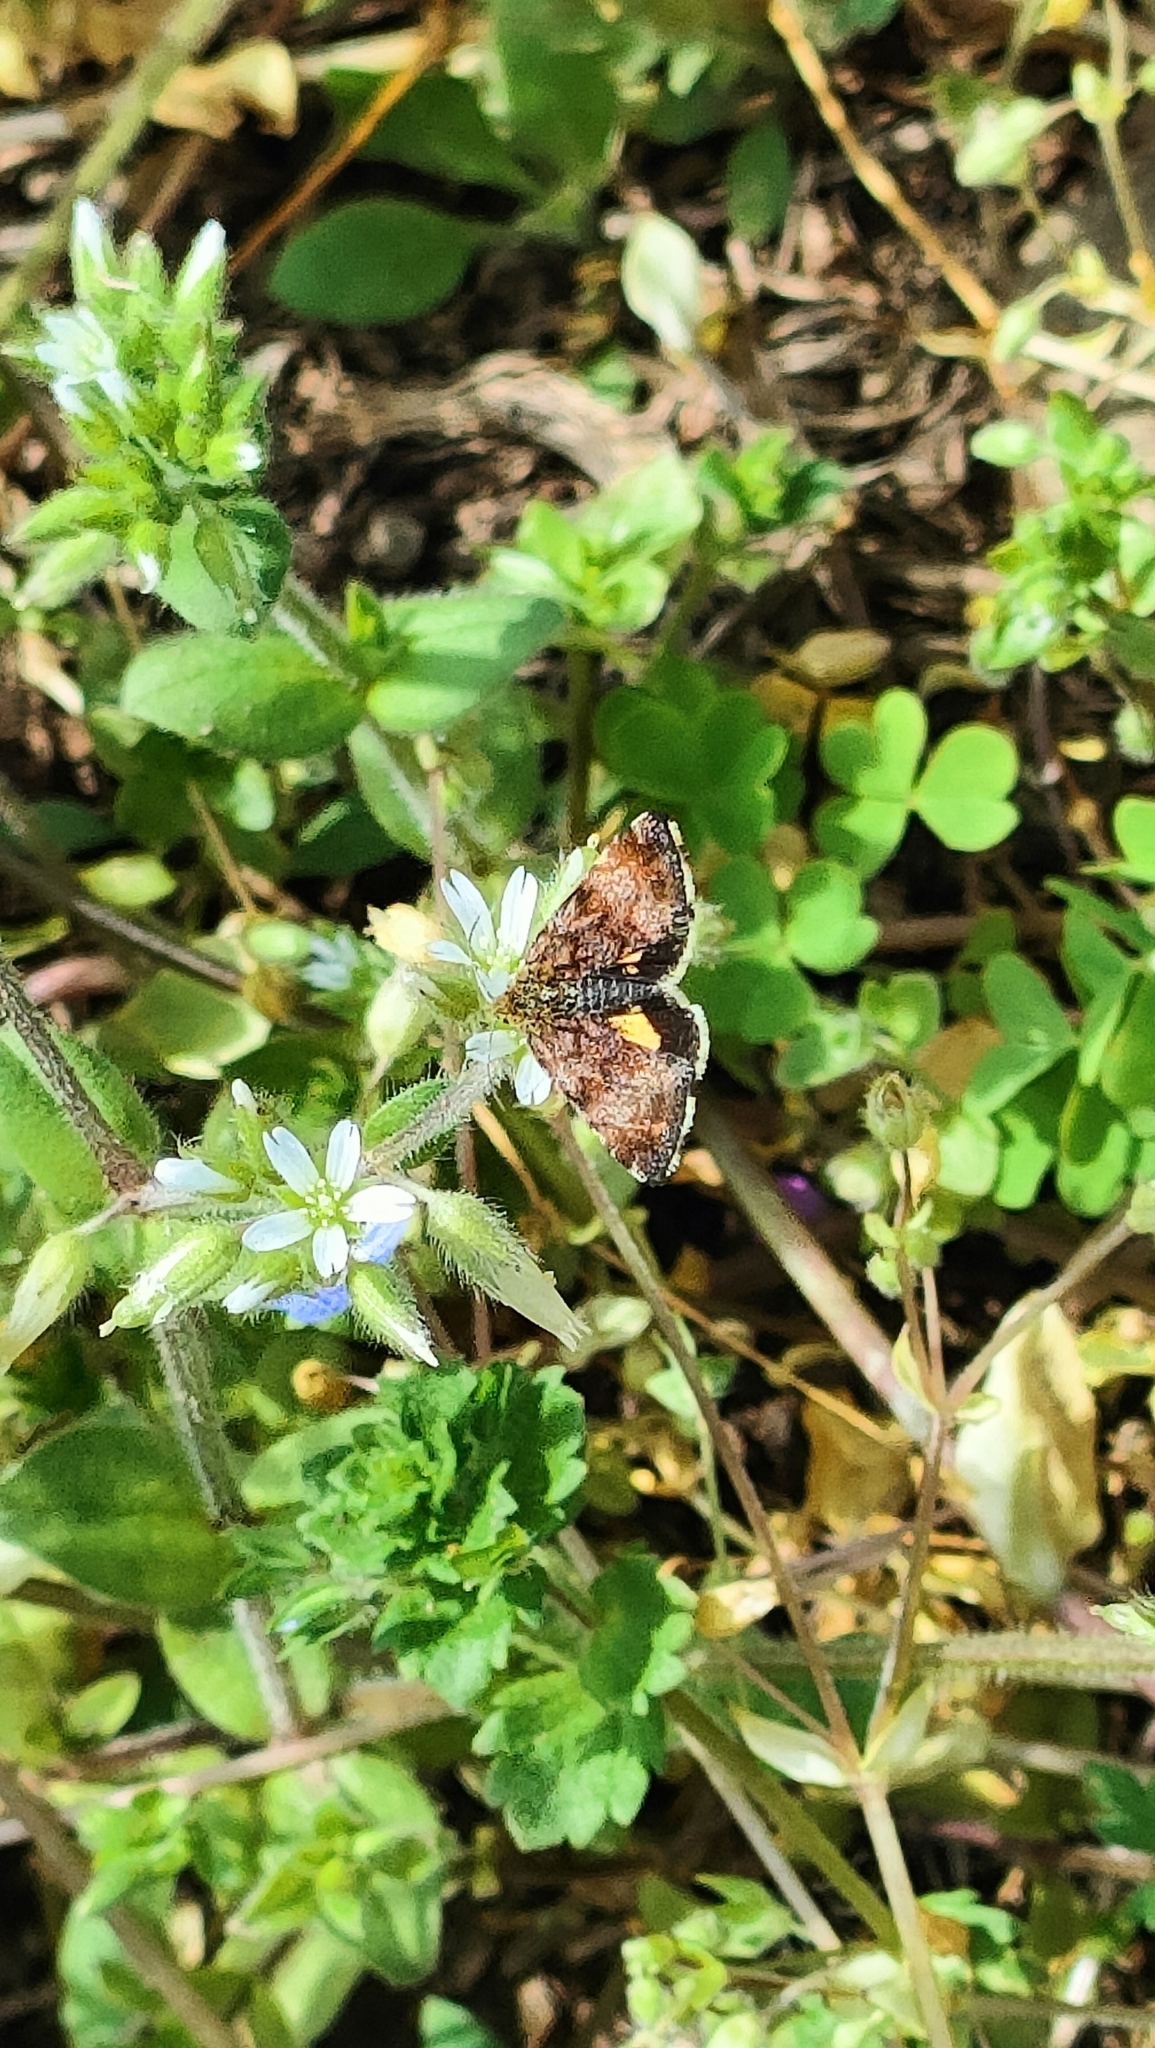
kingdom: Animalia
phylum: Arthropoda
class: Insecta
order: Lepidoptera
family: Noctuidae
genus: Panemeria
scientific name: Panemeria tenebrata
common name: Small yellow underwing
